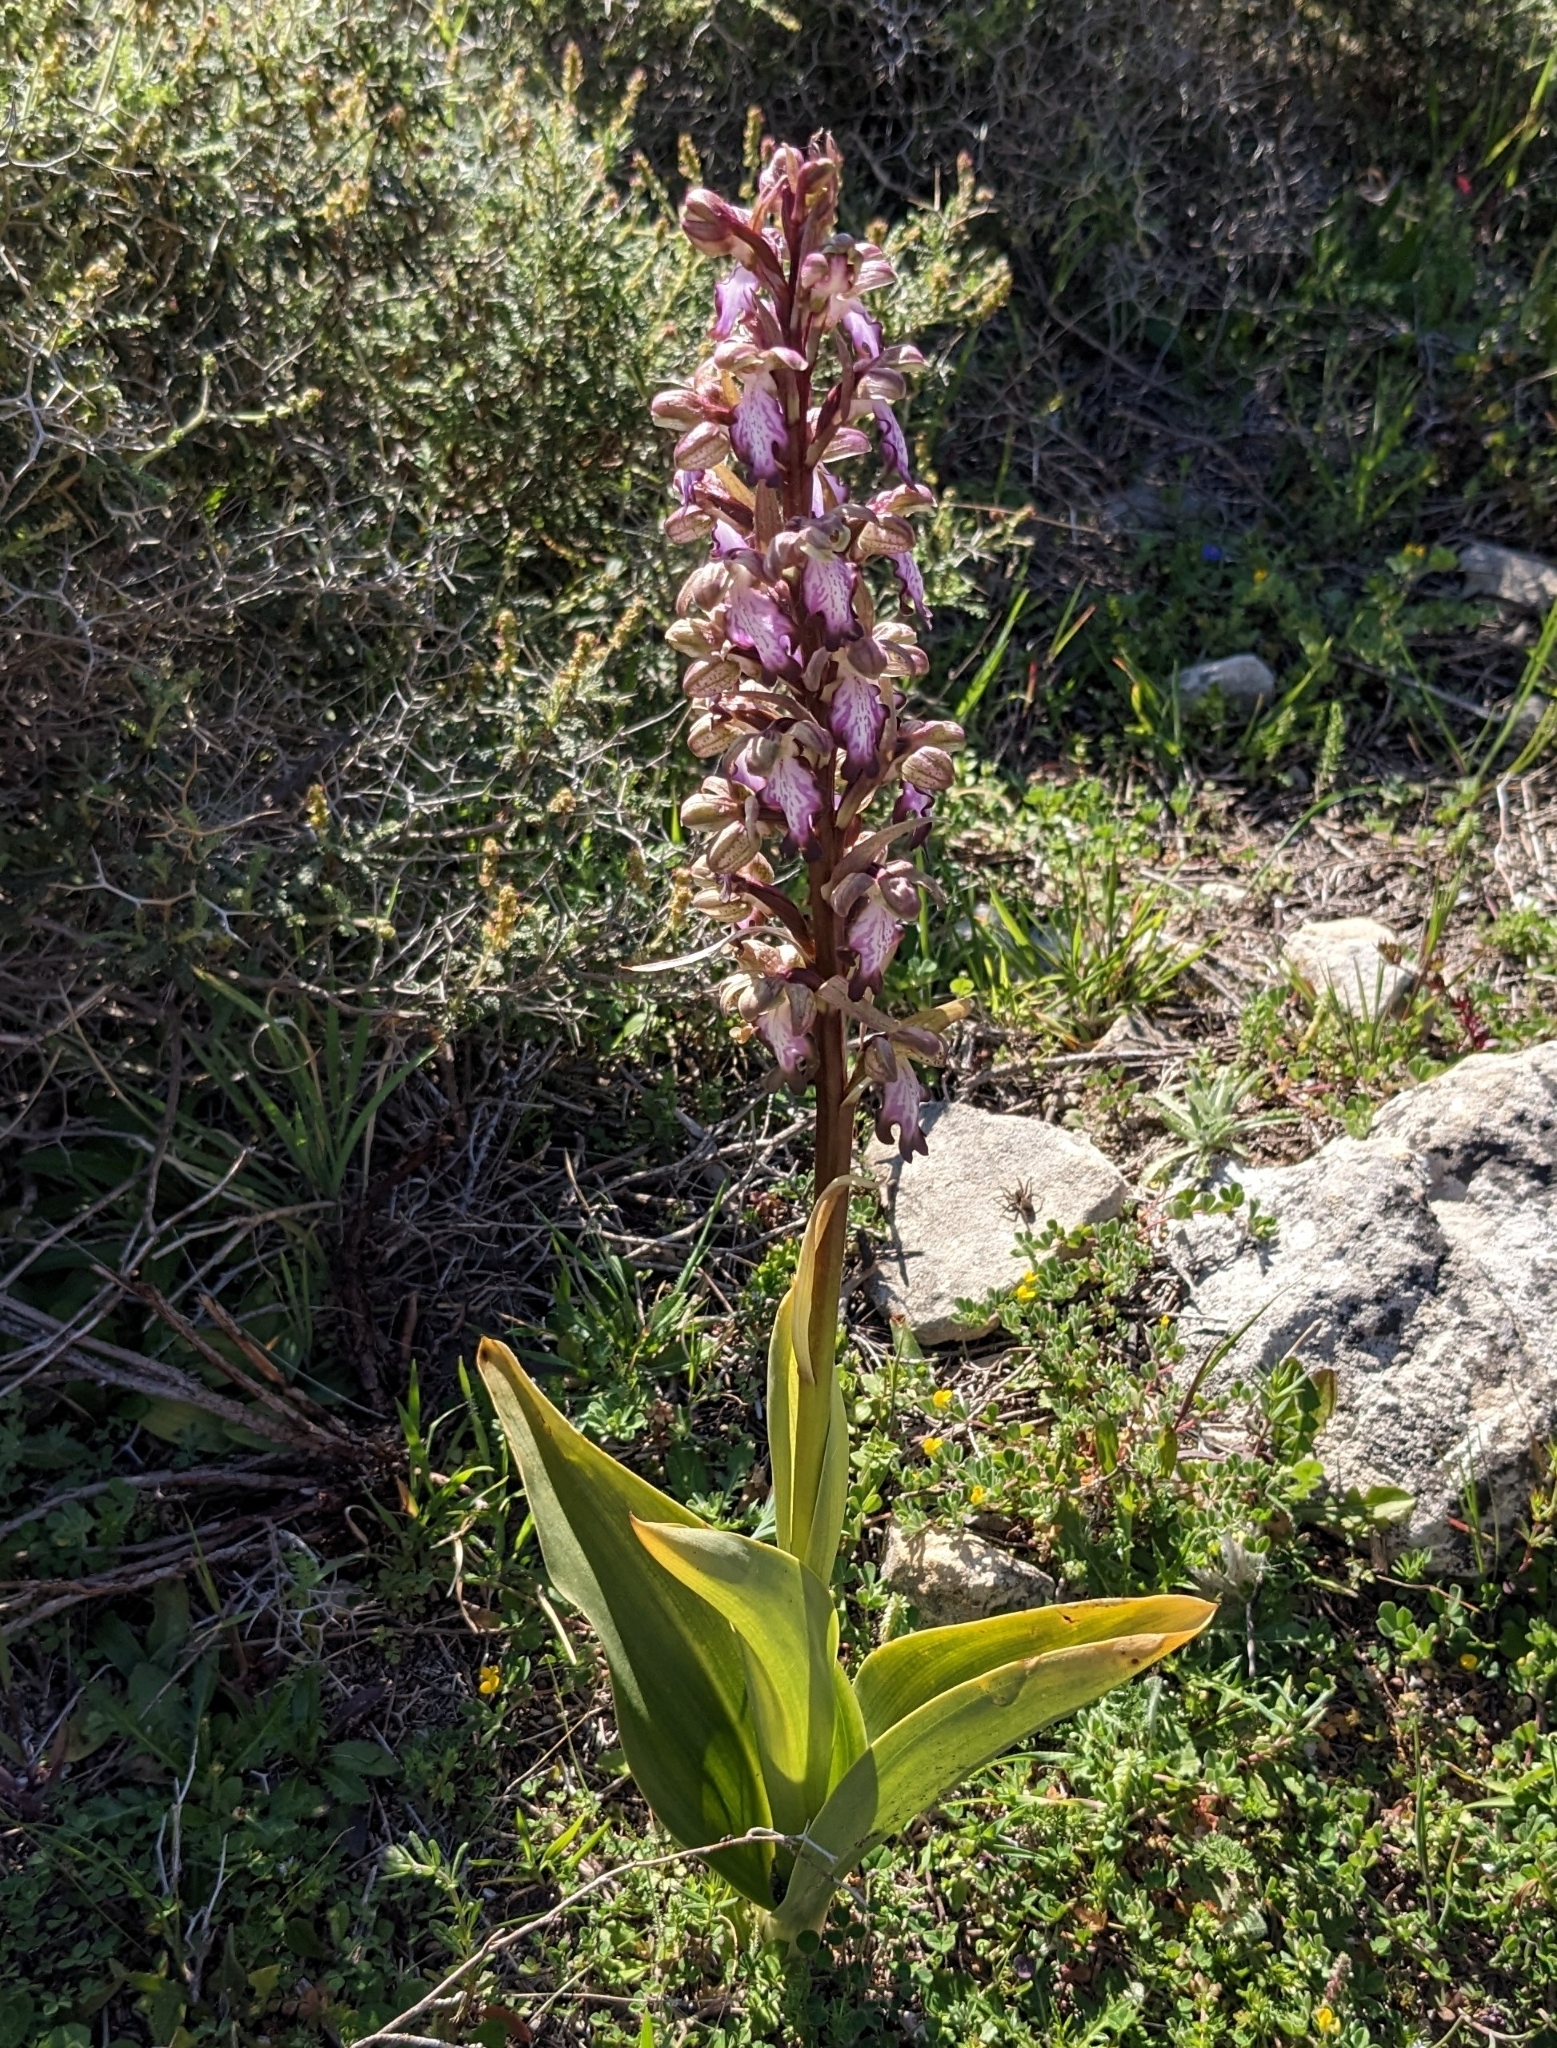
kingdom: Plantae
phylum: Tracheophyta
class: Liliopsida
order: Asparagales
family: Orchidaceae
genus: Himantoglossum
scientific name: Himantoglossum robertianum
